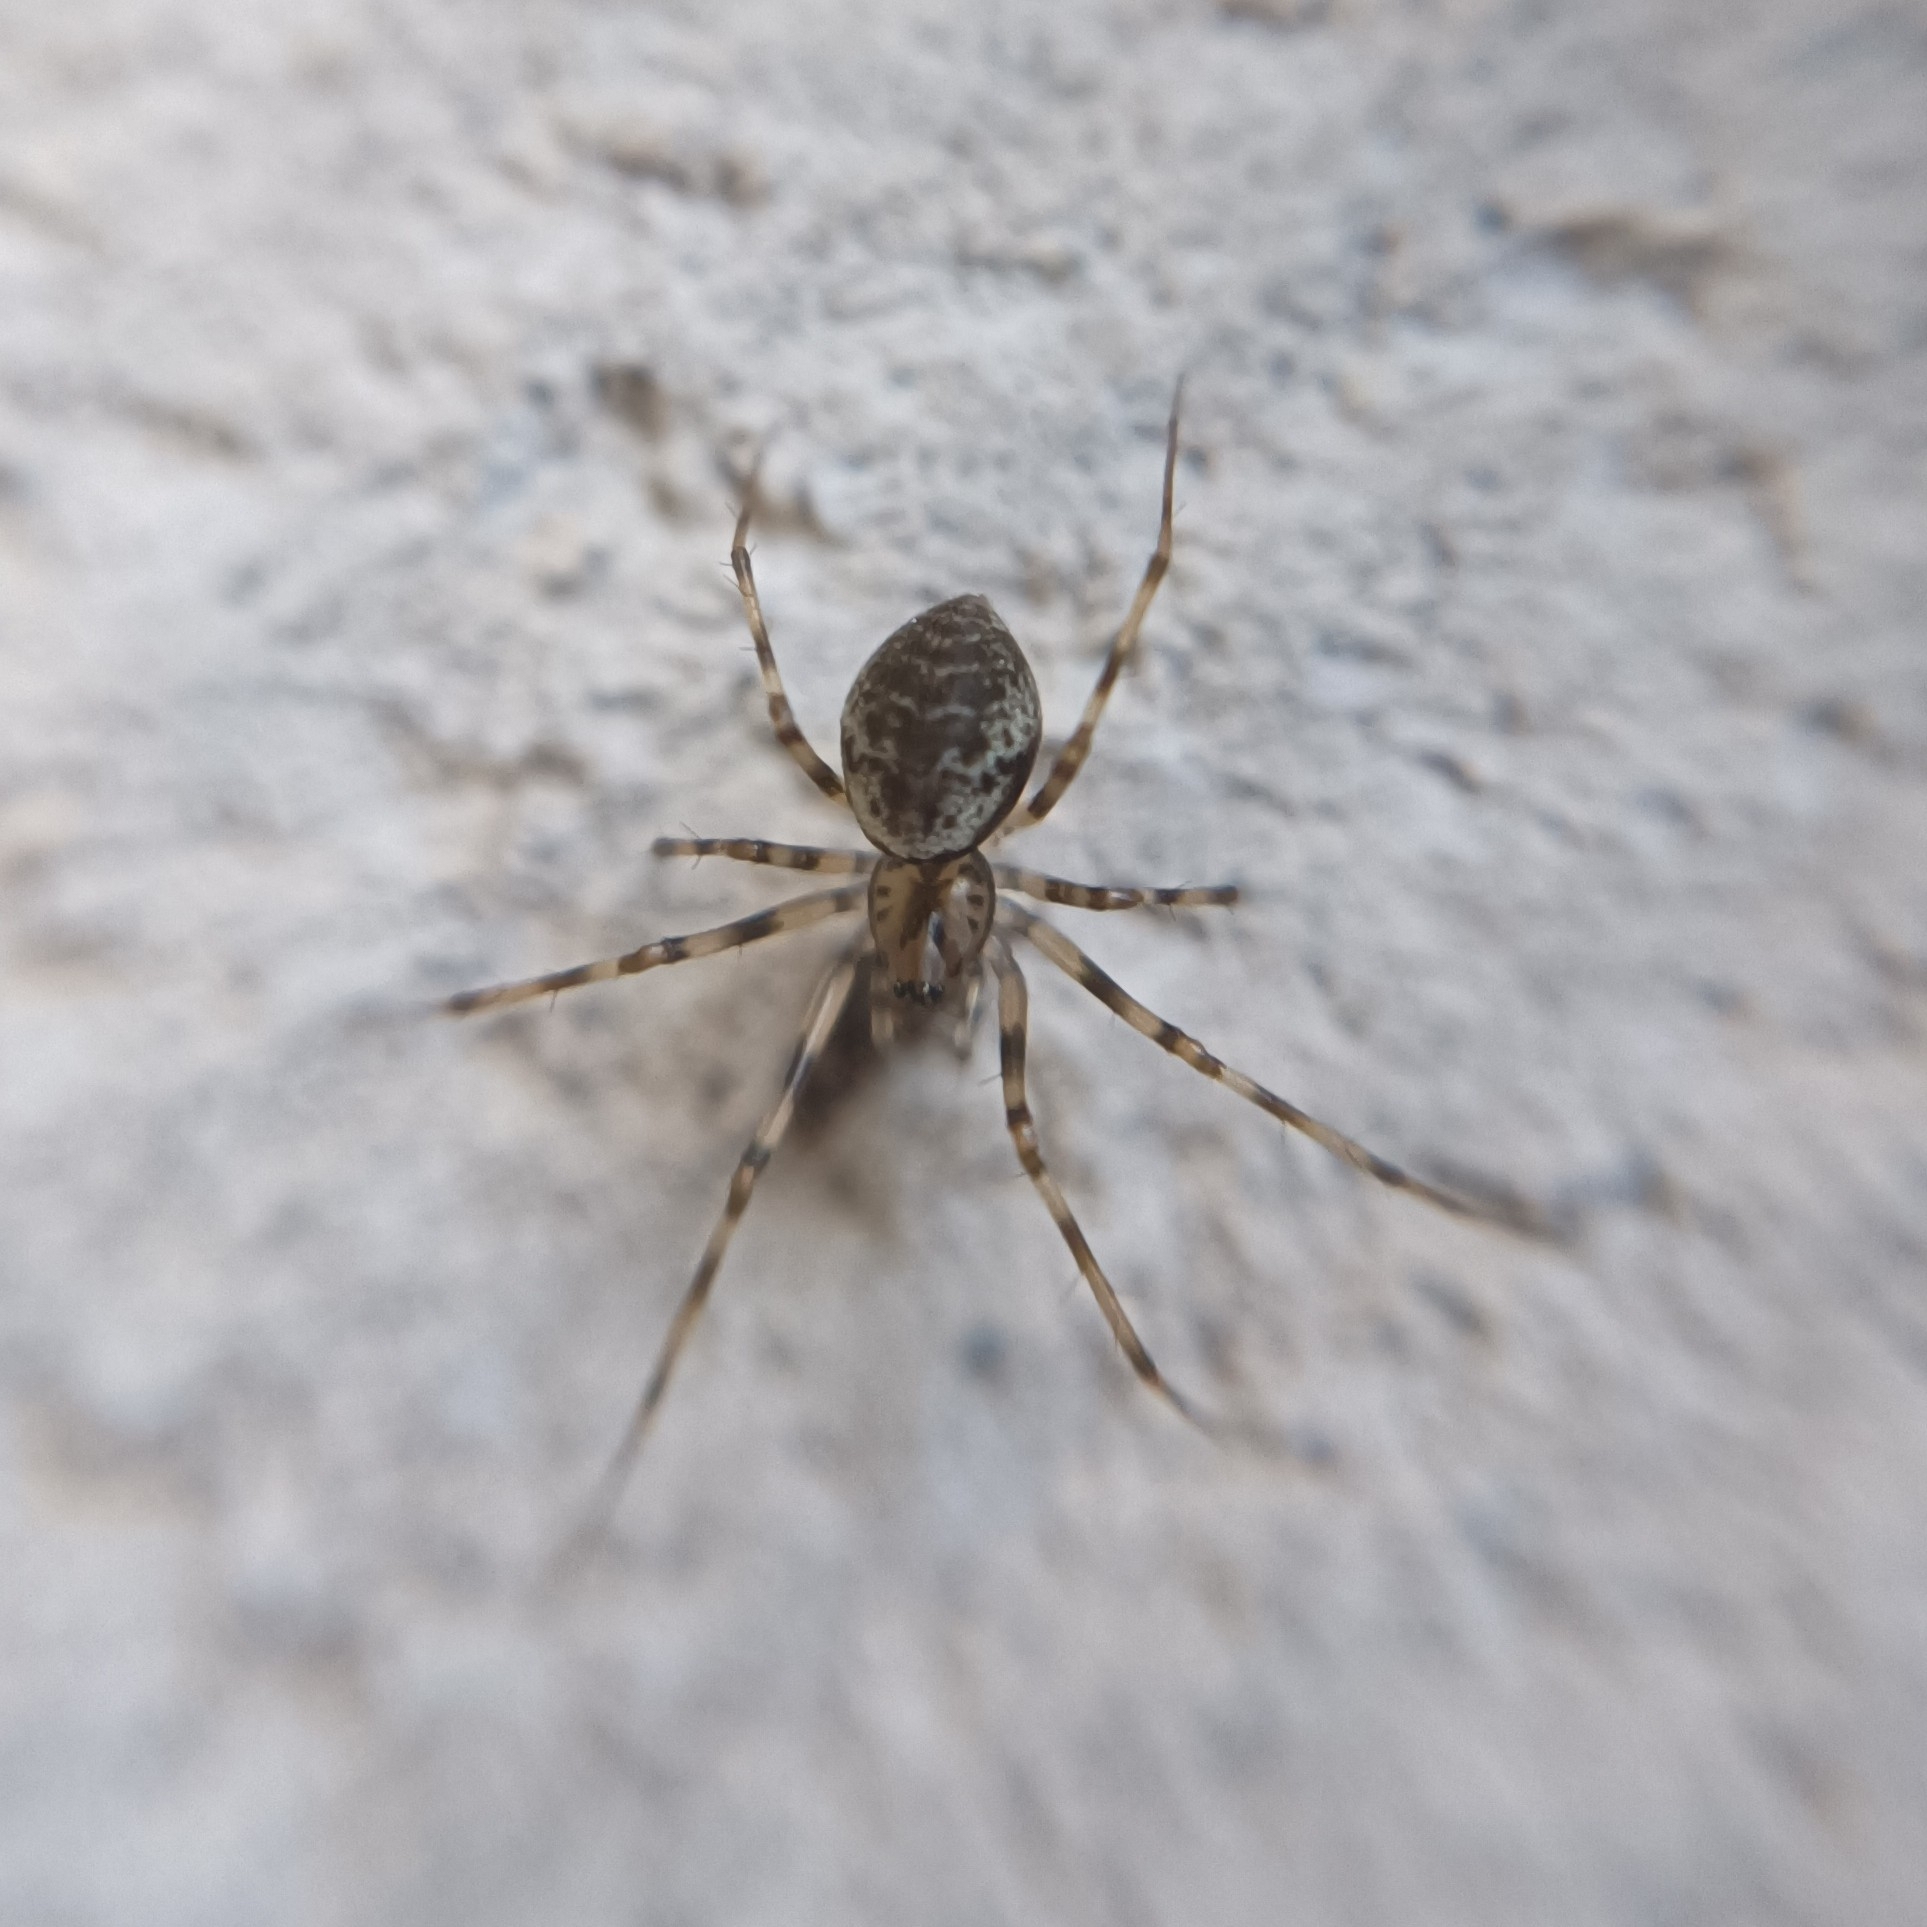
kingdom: Animalia
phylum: Arthropoda
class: Arachnida
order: Araneae
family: Linyphiidae
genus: Drapetisca
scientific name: Drapetisca socialis
